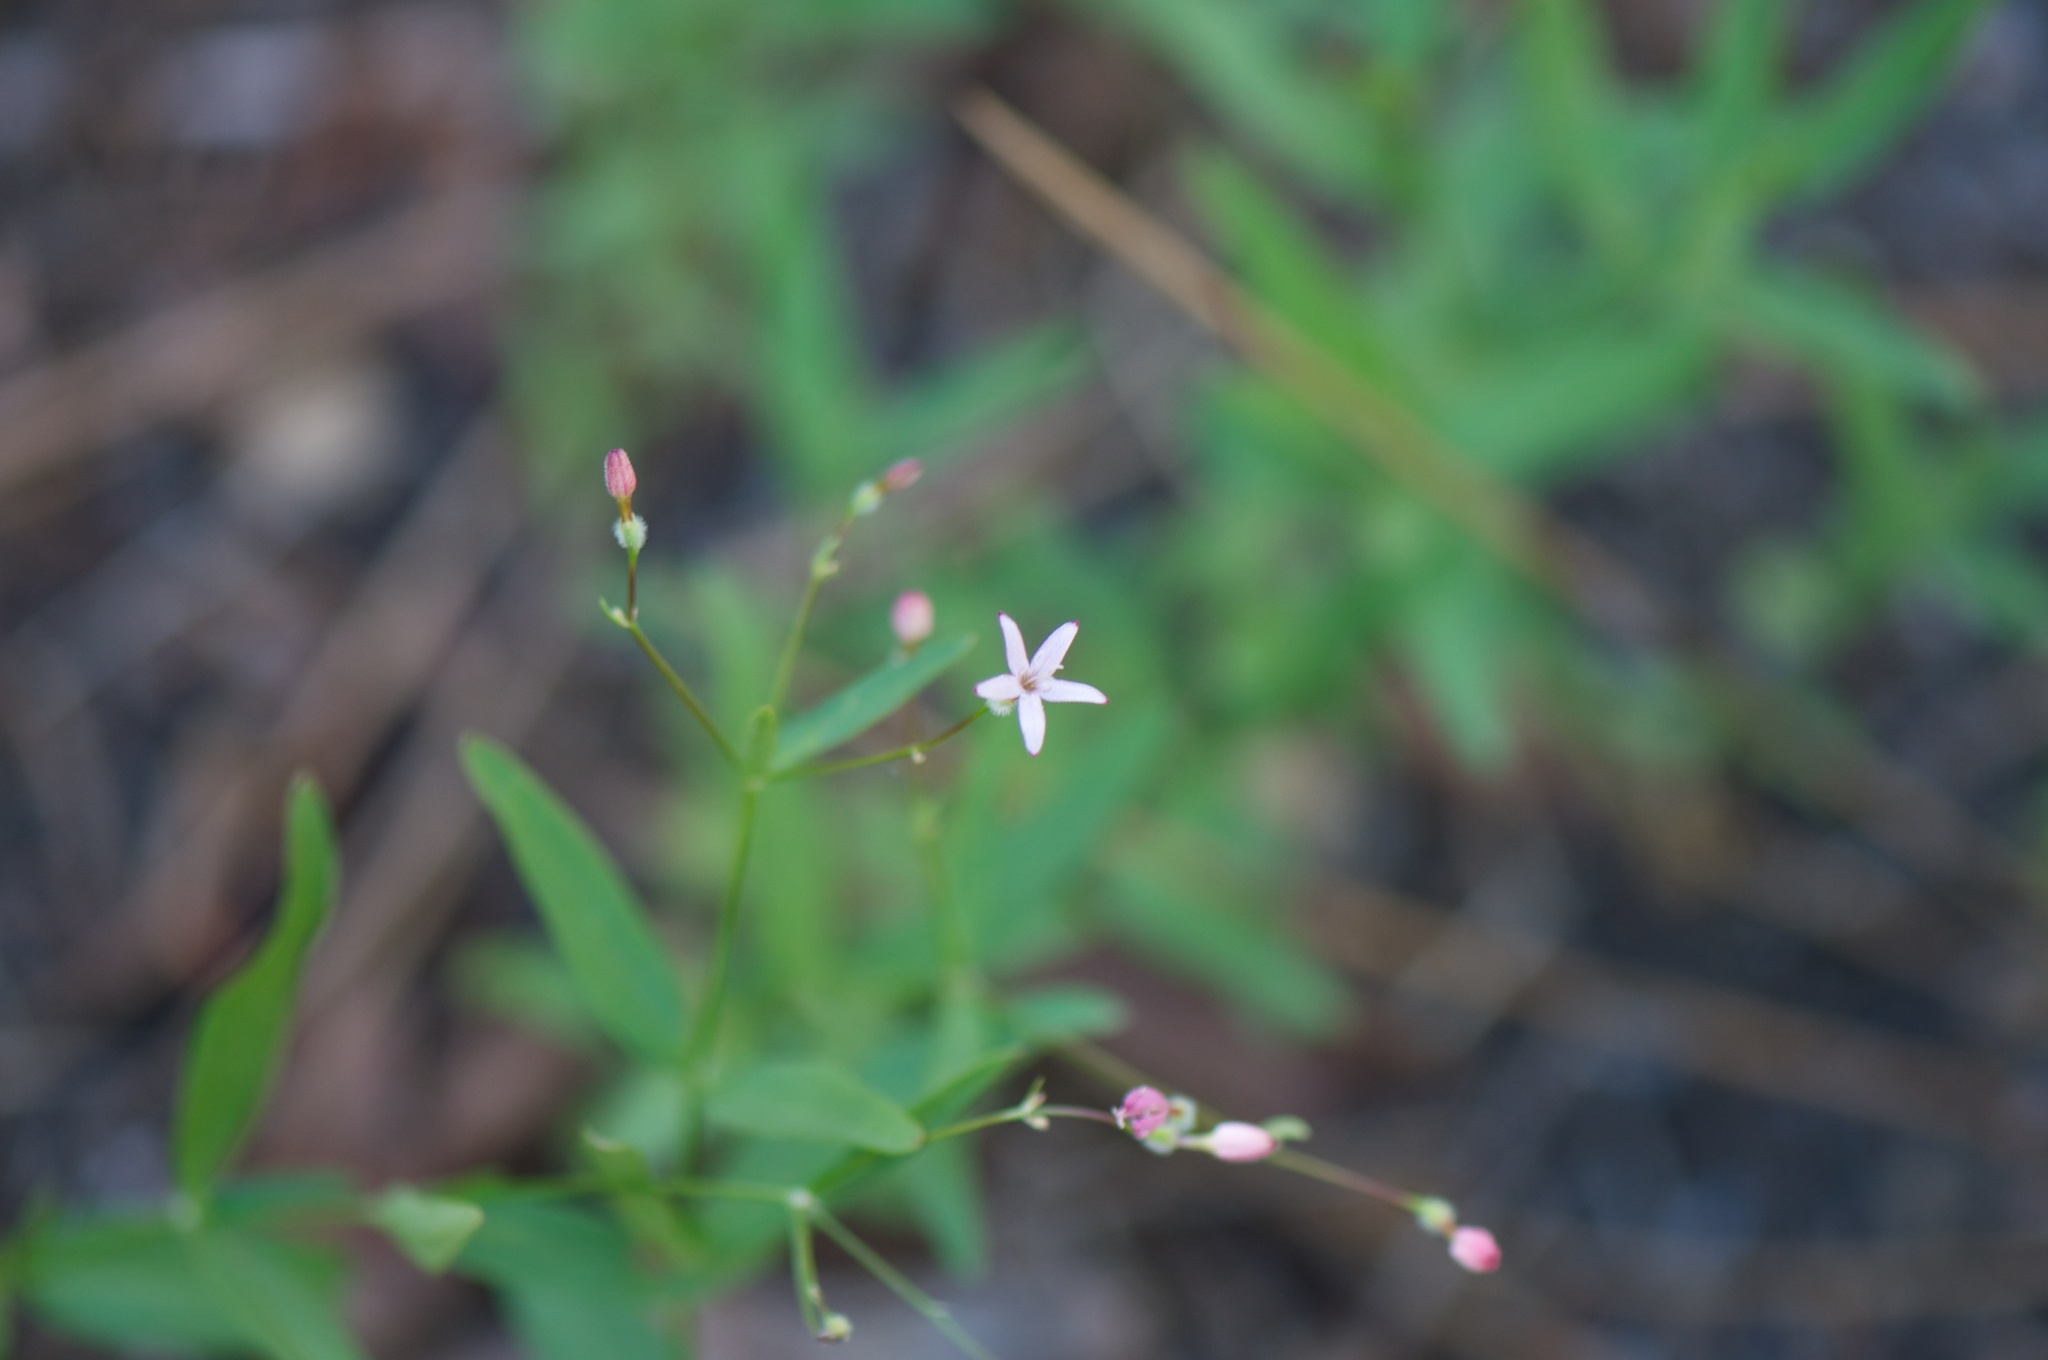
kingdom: Plantae
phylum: Tracheophyta
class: Magnoliopsida
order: Gentianales
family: Rubiaceae
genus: Kelloggia
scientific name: Kelloggia galioides
